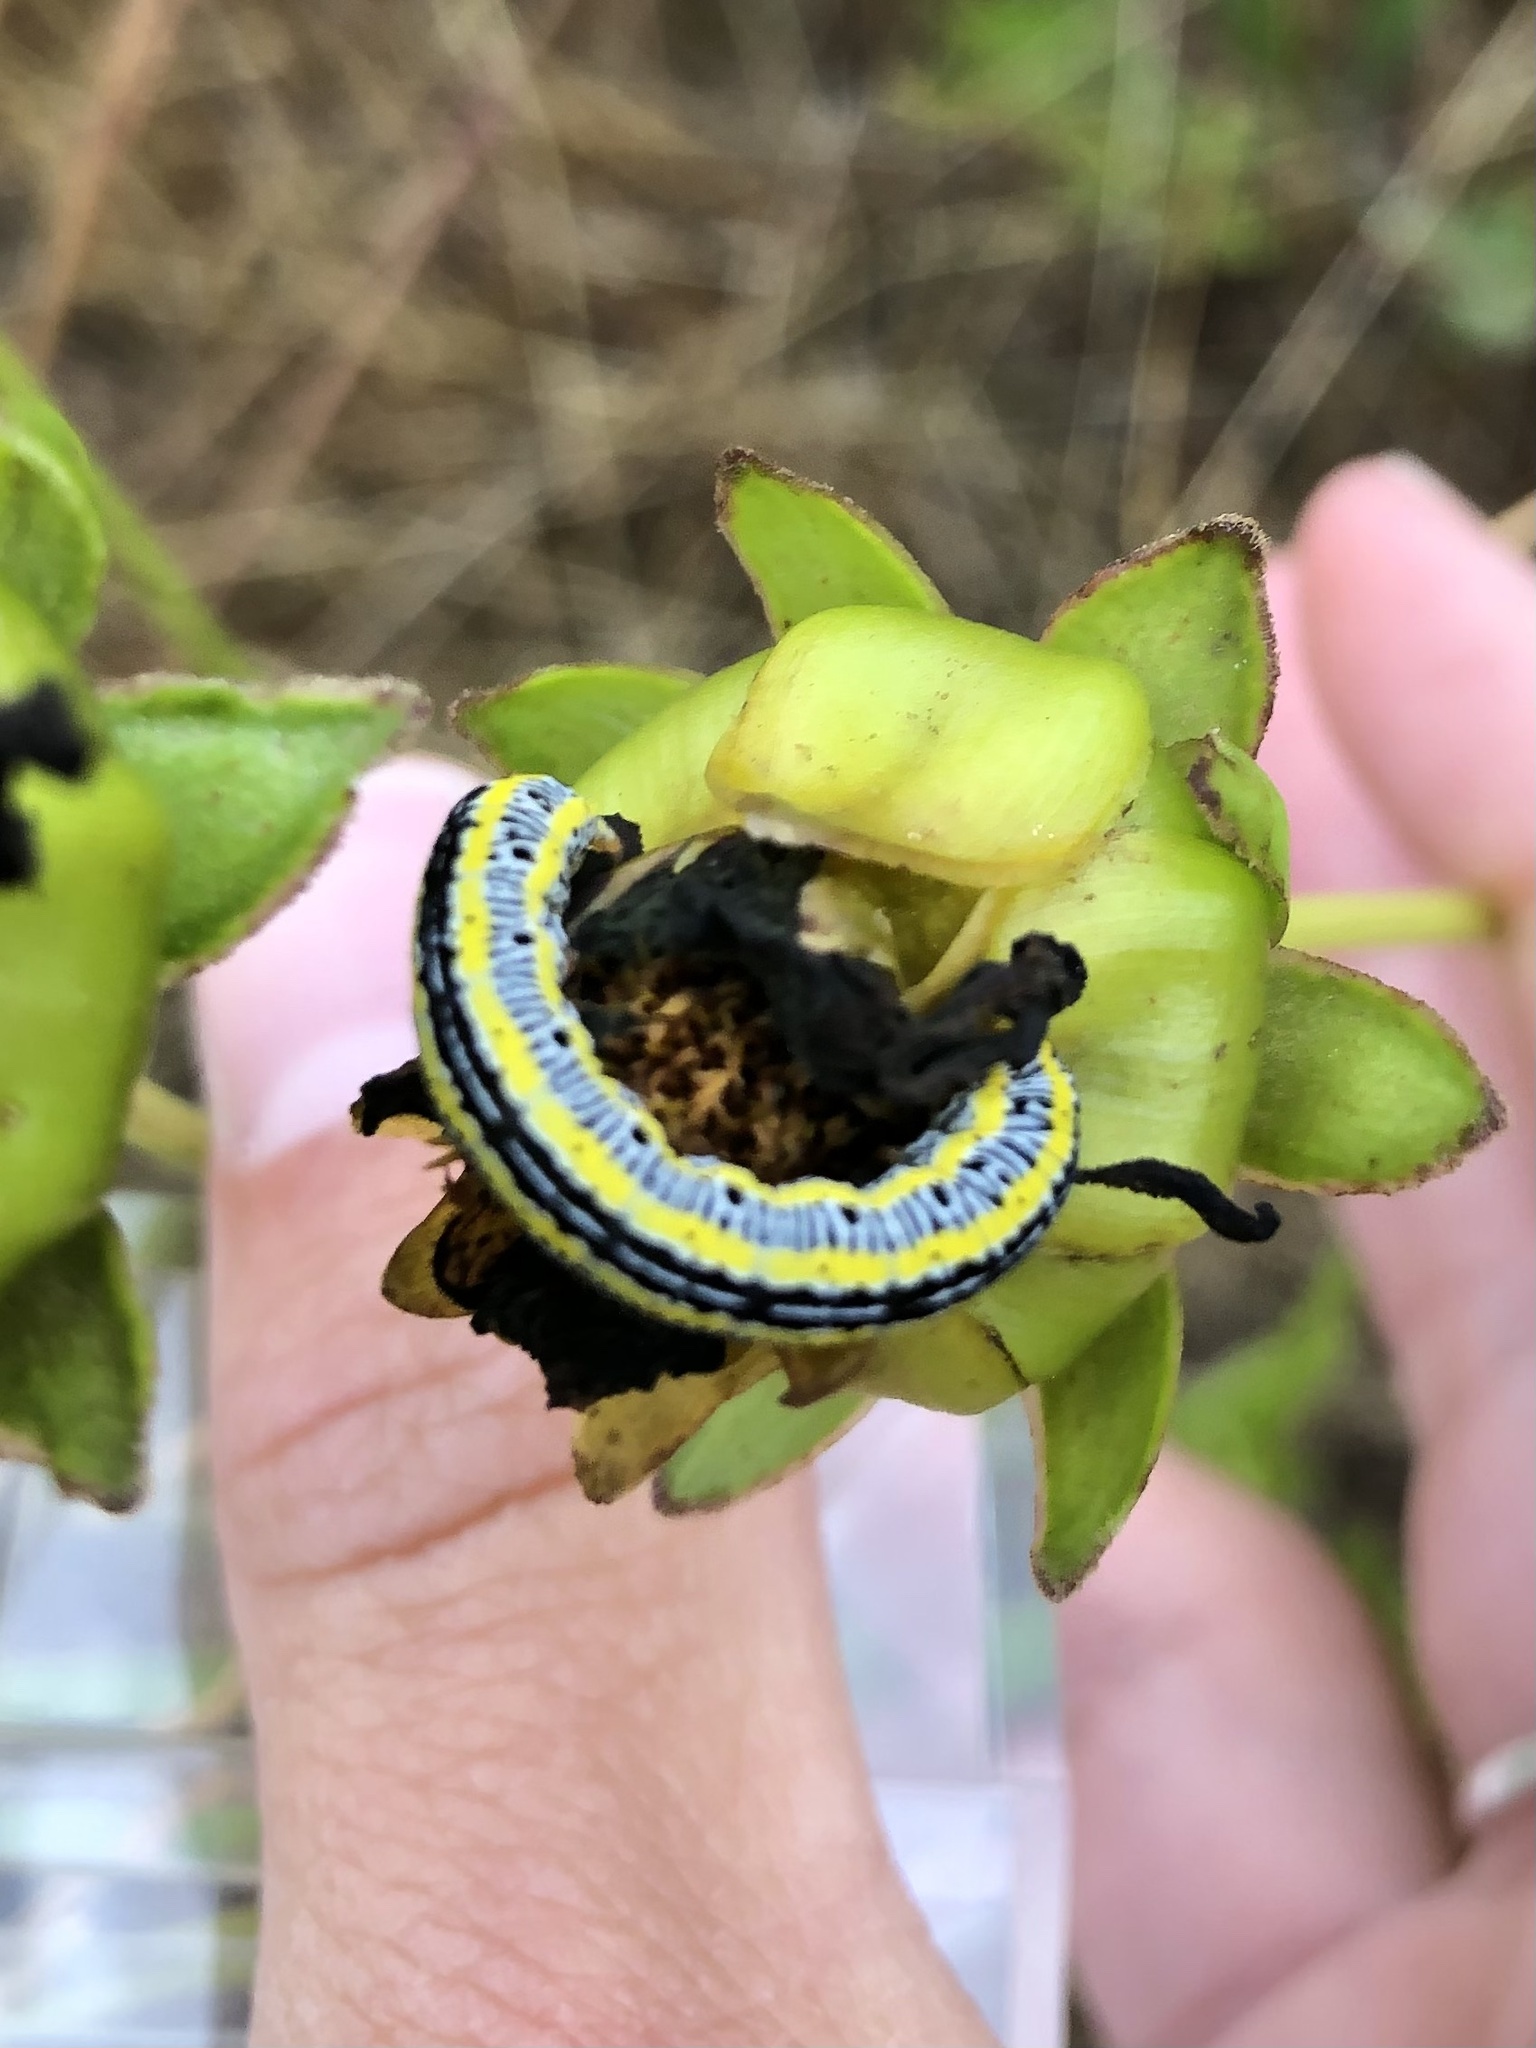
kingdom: Animalia
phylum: Arthropoda
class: Insecta
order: Lepidoptera
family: Noctuidae
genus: Melanchra
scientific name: Melanchra picta
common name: Zebra caterpillar
